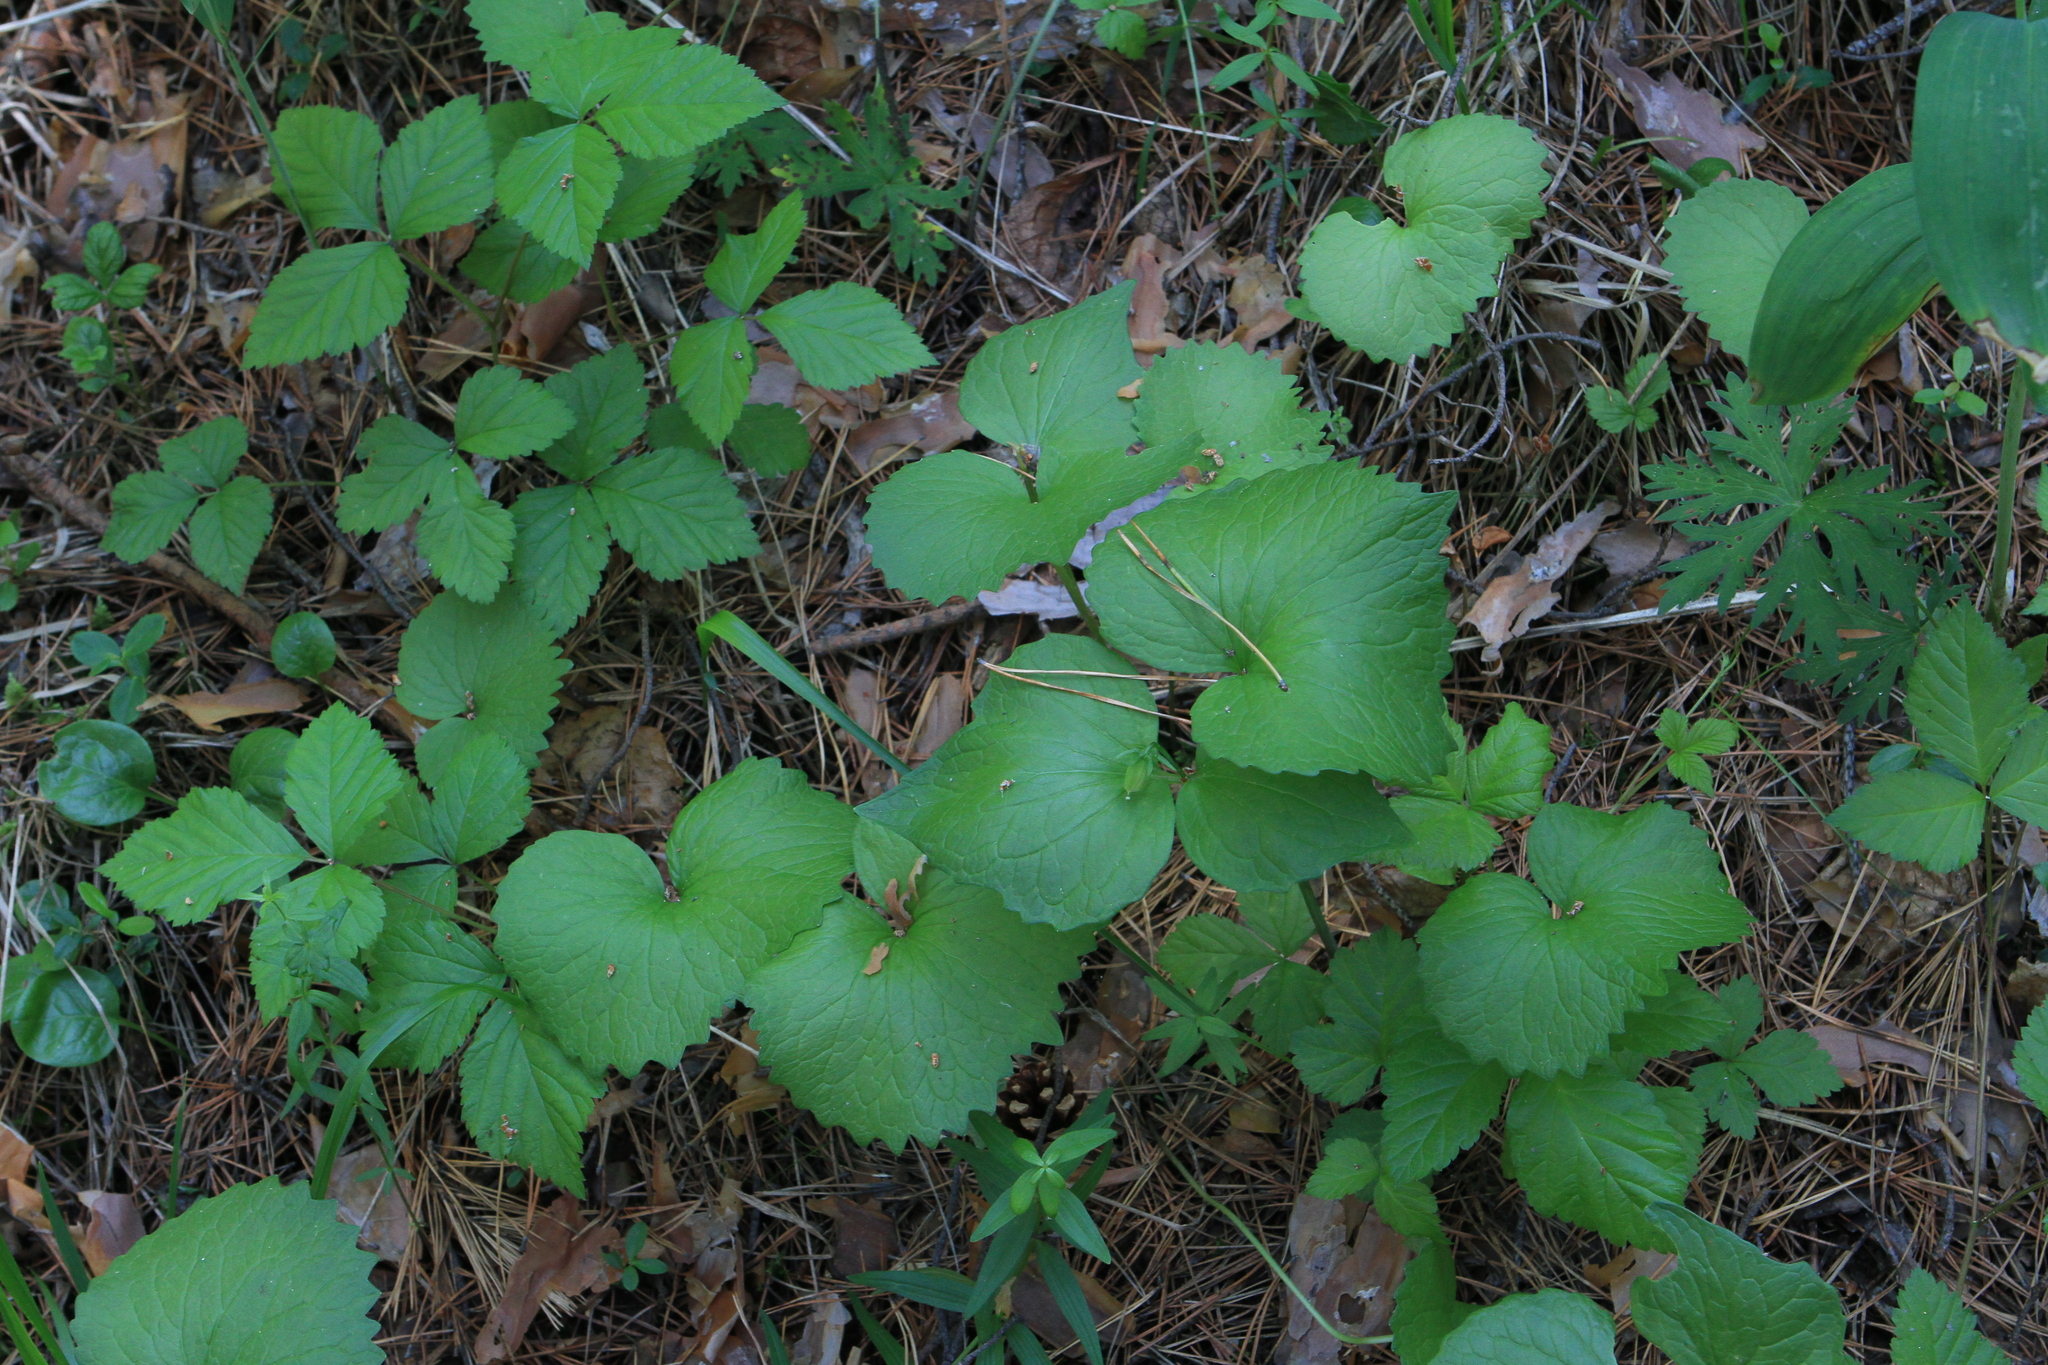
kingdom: Plantae
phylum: Tracheophyta
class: Magnoliopsida
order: Malpighiales
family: Violaceae
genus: Viola
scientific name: Viola uniflora
